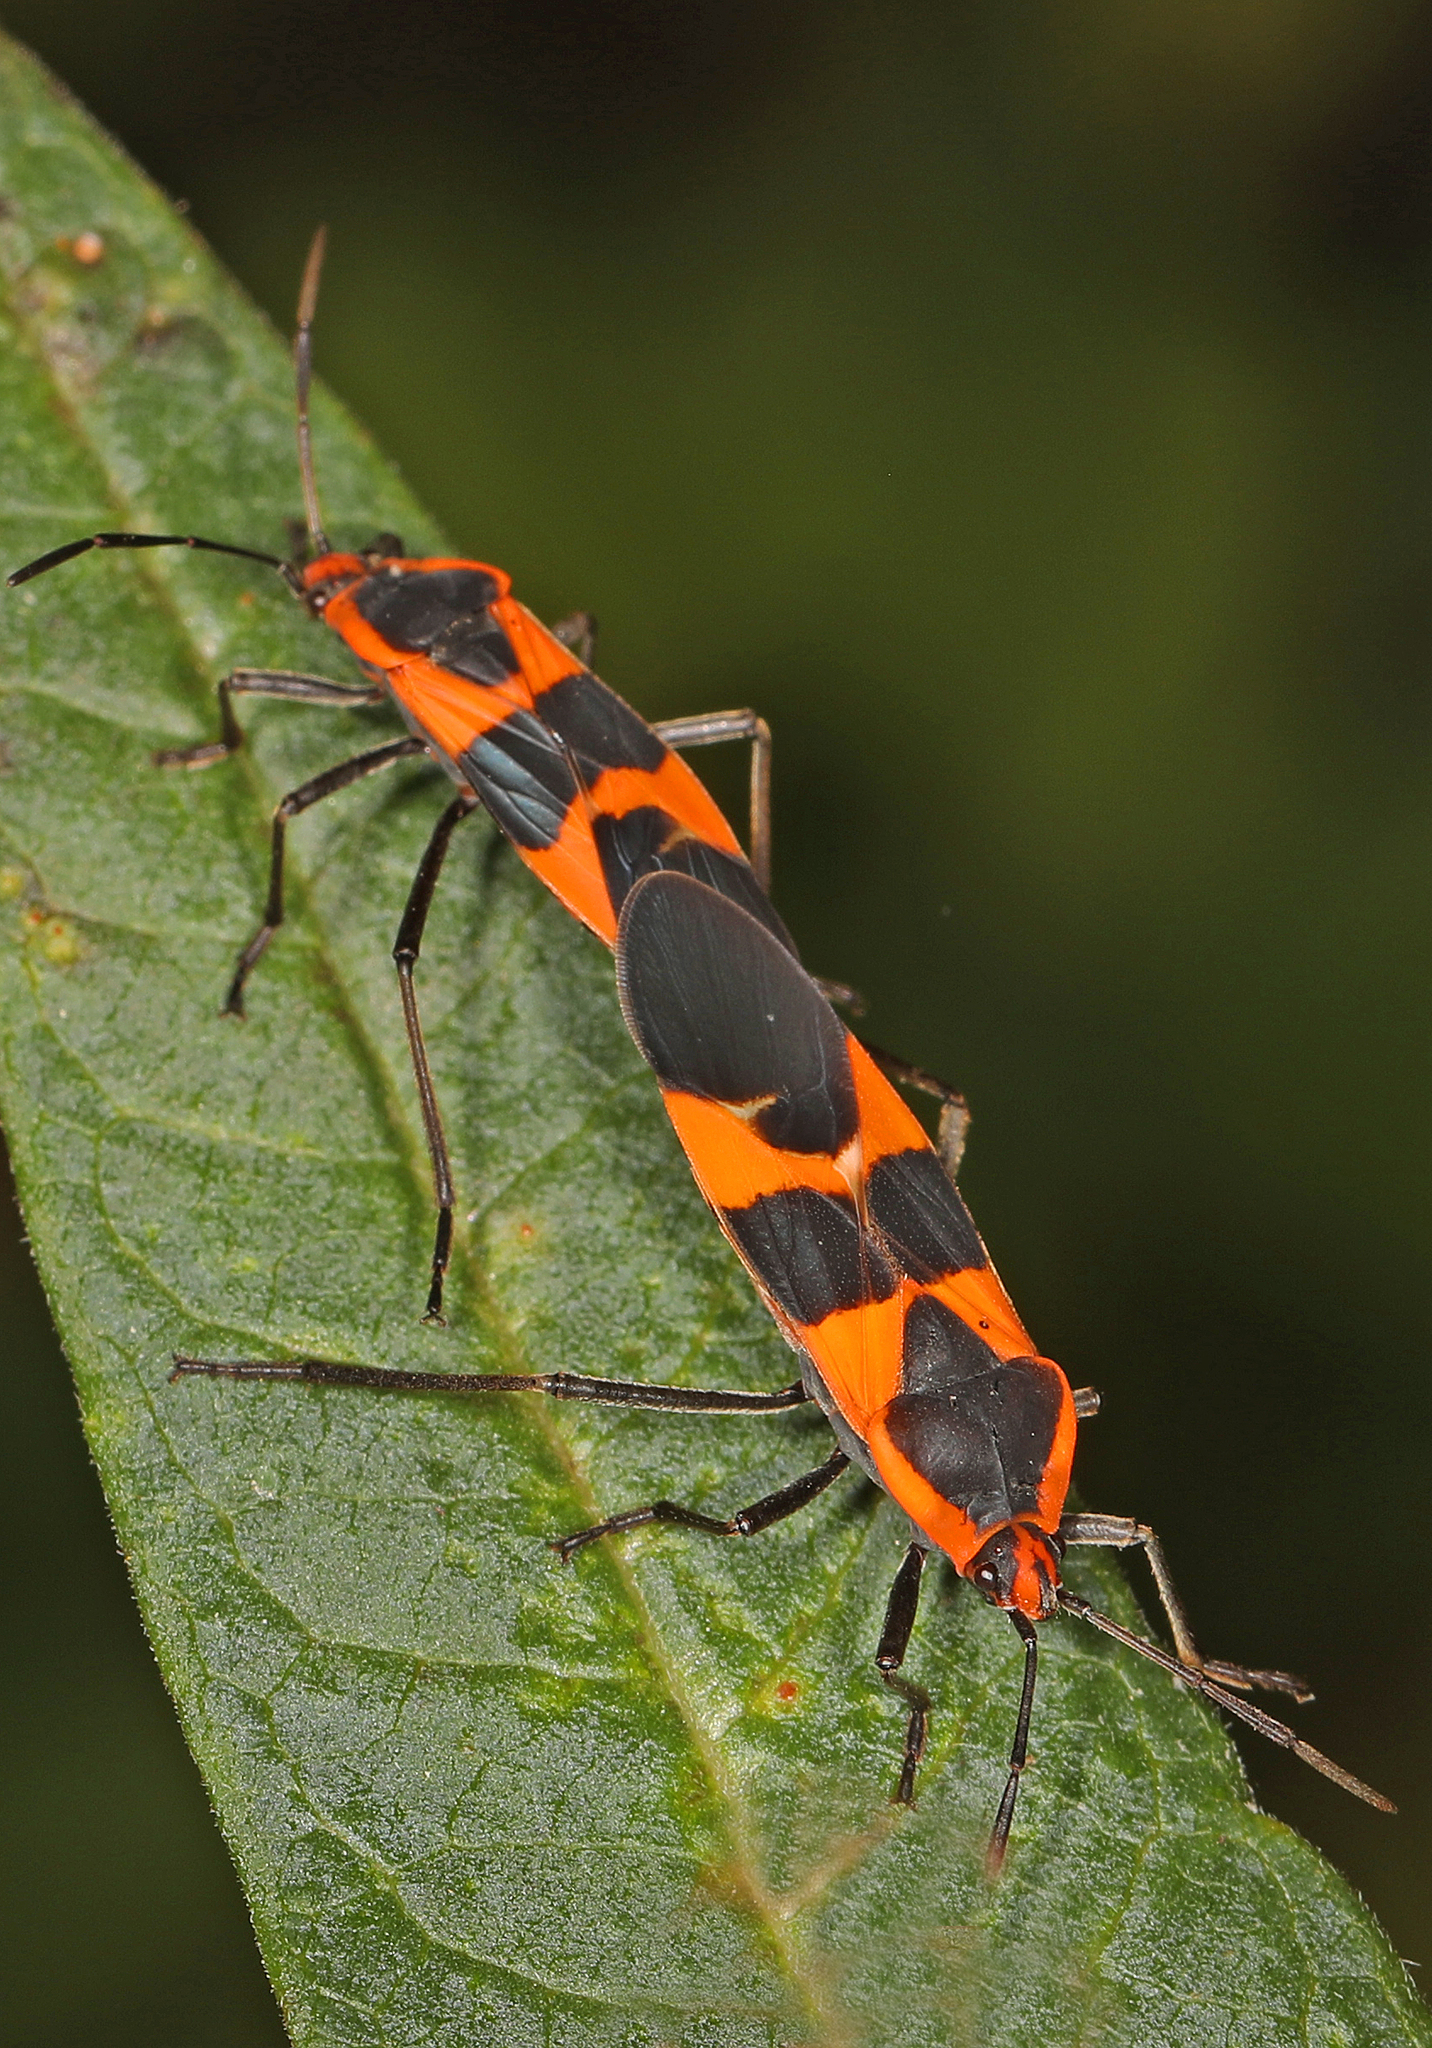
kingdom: Animalia
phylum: Arthropoda
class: Insecta
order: Hemiptera
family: Lygaeidae
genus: Oncopeltus
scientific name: Oncopeltus fasciatus
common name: Large milkweed bug
